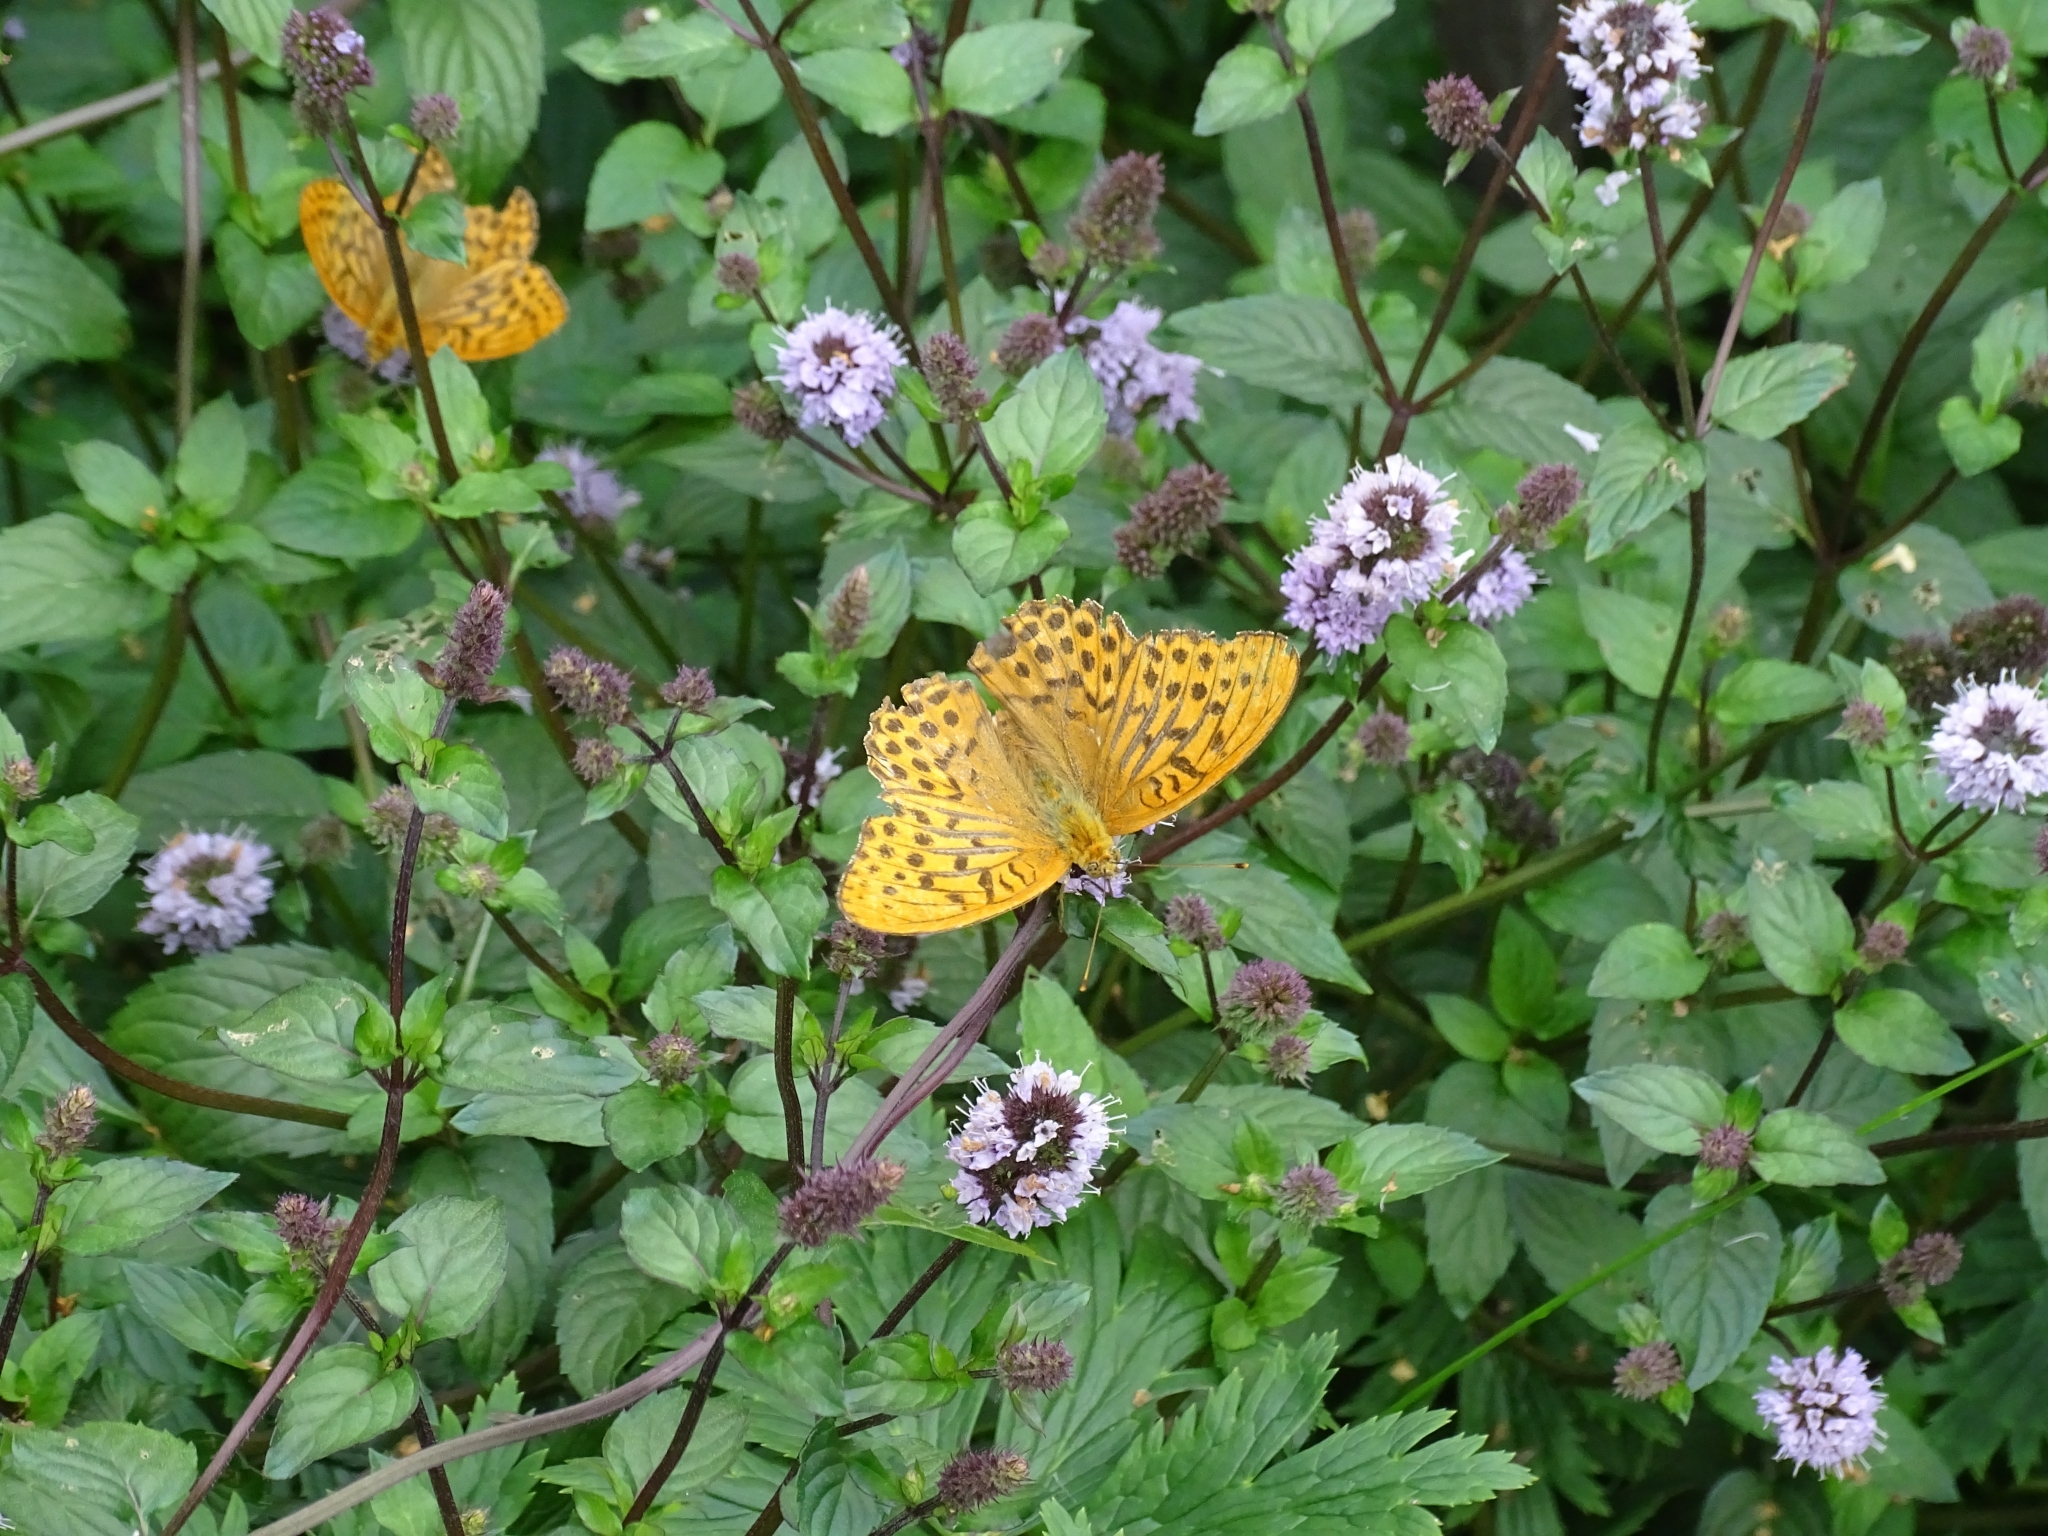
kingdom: Animalia
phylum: Arthropoda
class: Insecta
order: Lepidoptera
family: Nymphalidae
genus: Argynnis
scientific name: Argynnis paphia
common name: Silver-washed fritillary
